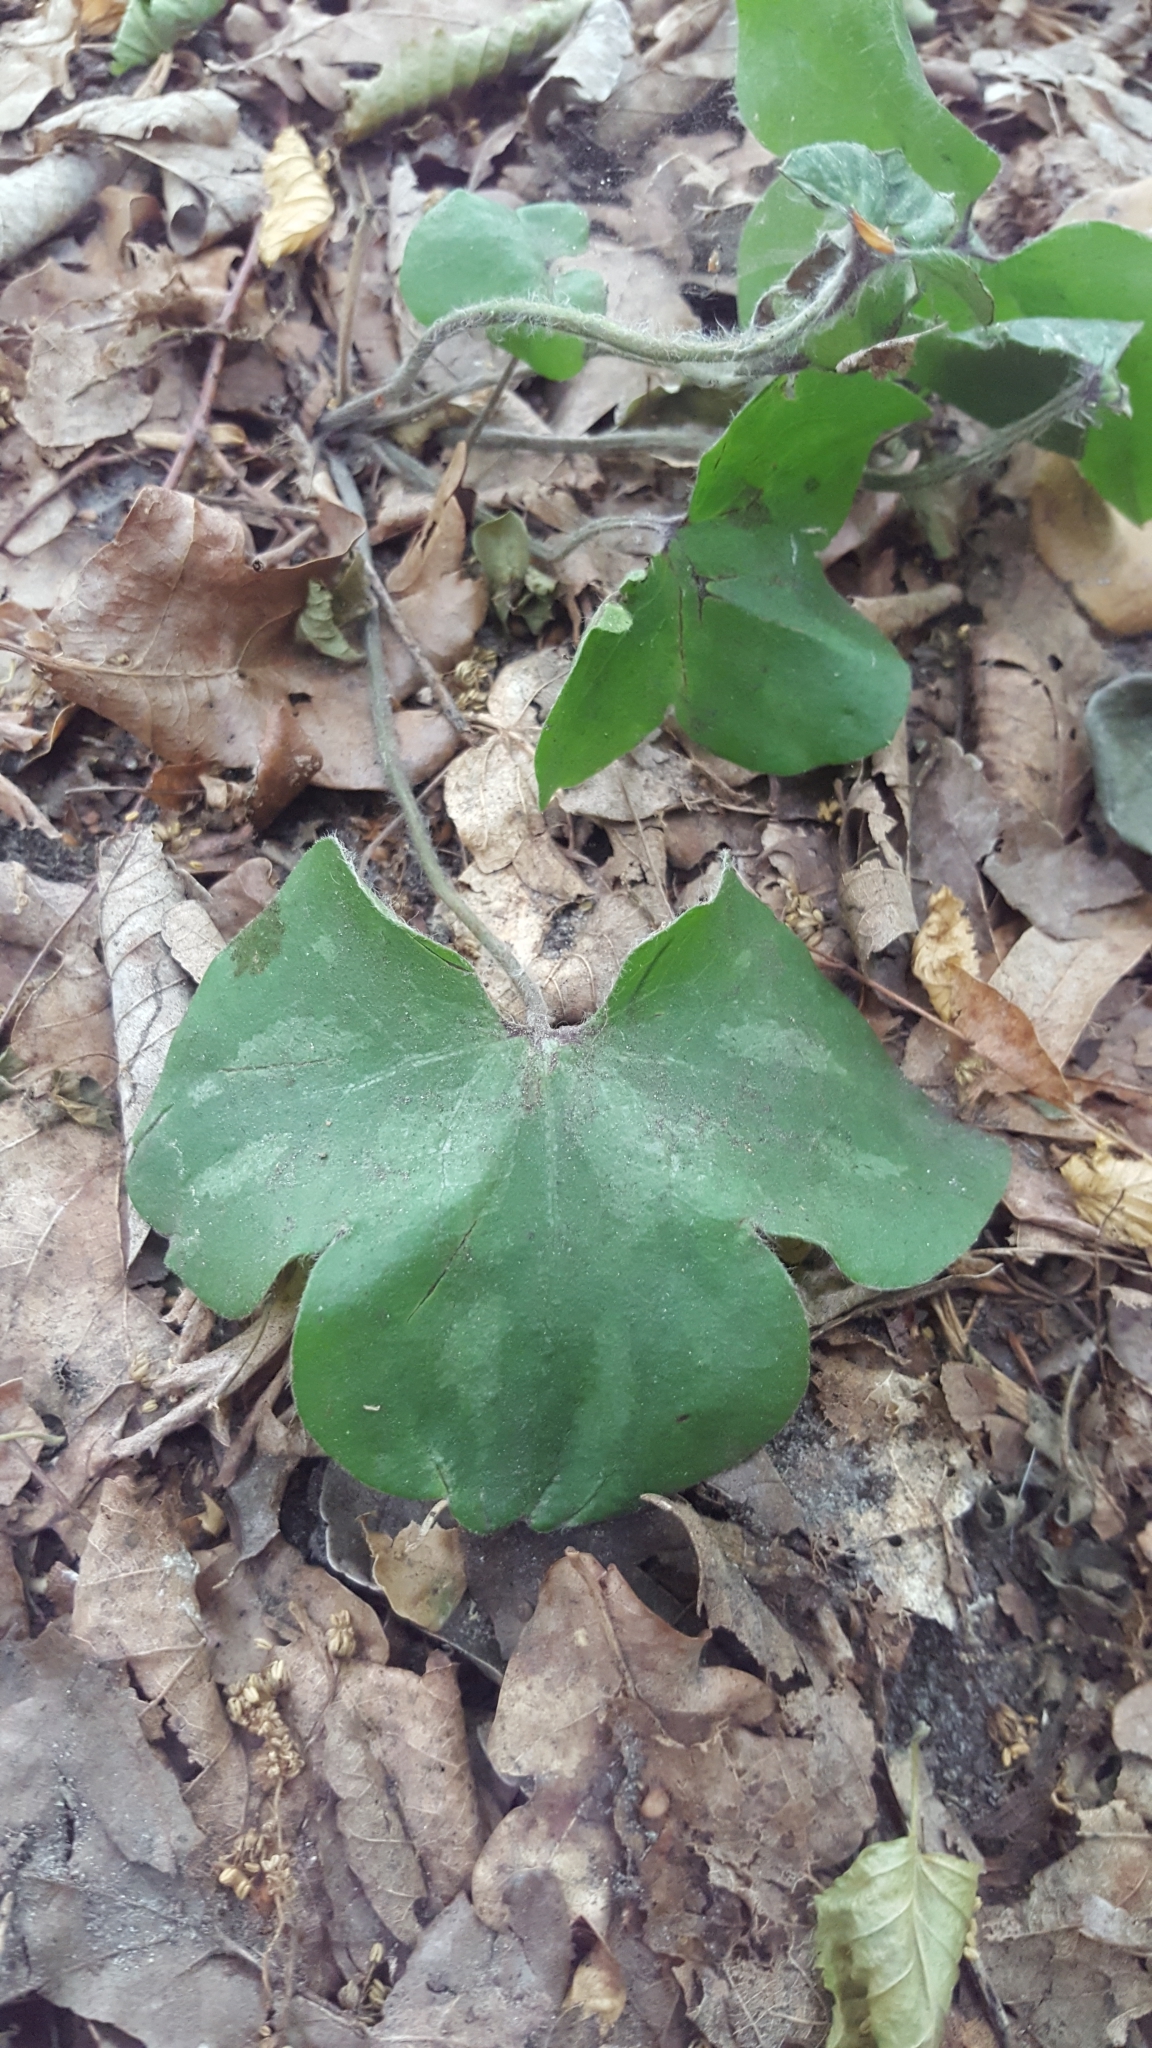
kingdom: Plantae
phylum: Tracheophyta
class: Magnoliopsida
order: Ranunculales
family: Ranunculaceae
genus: Hepatica
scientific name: Hepatica nobilis
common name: Liverleaf
